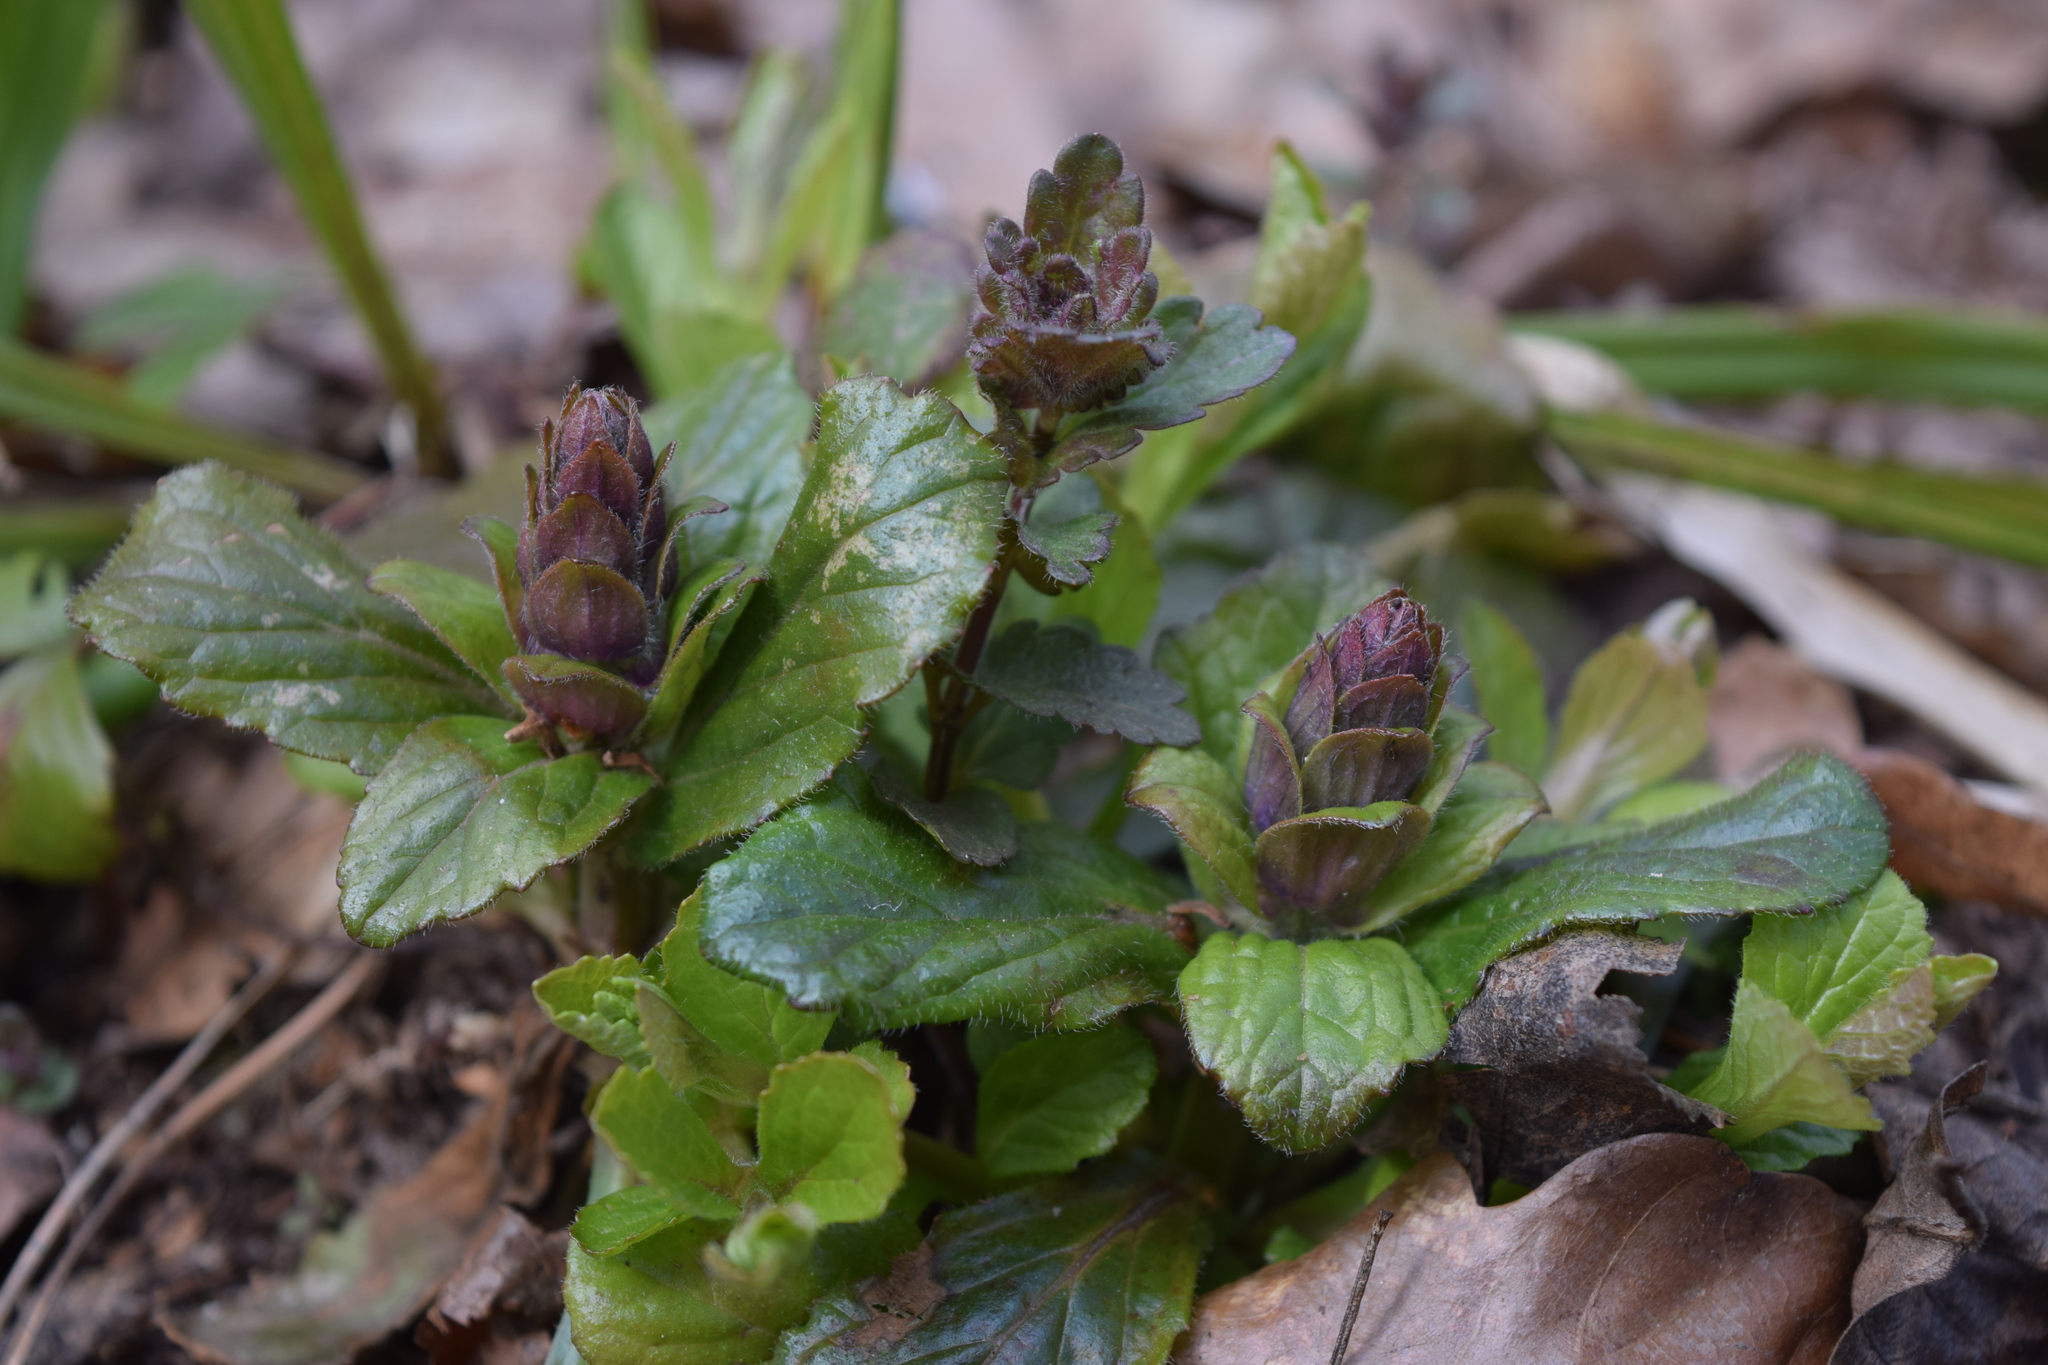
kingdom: Plantae
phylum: Tracheophyta
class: Magnoliopsida
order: Lamiales
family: Lamiaceae
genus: Ajuga
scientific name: Ajuga reptans
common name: Bugle
